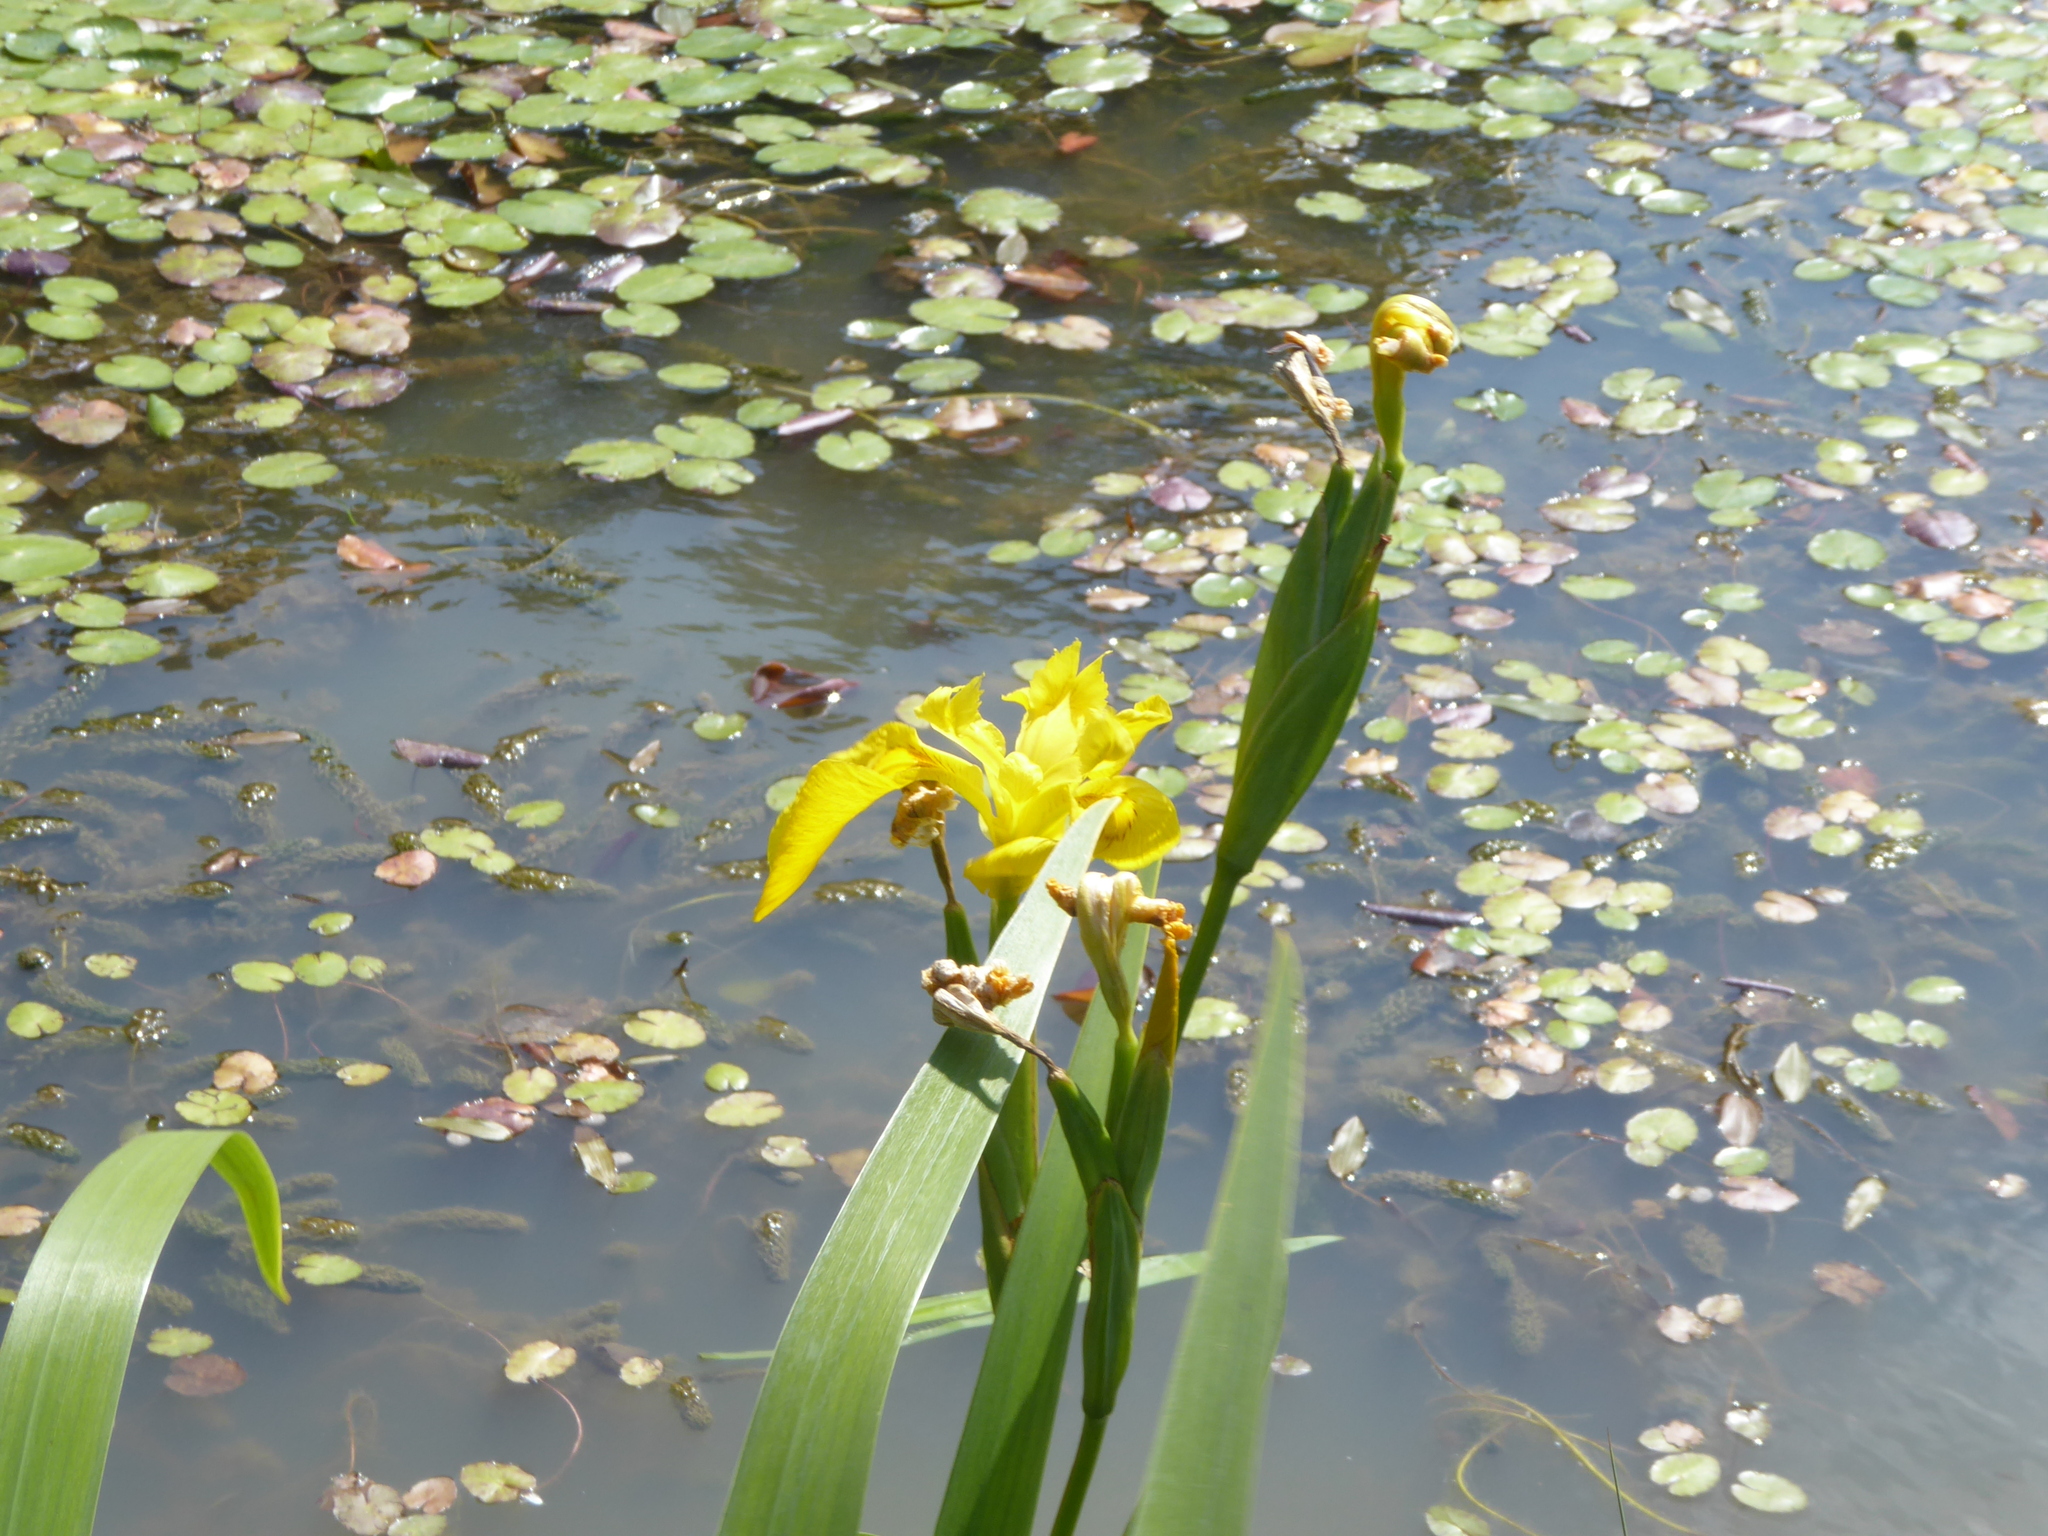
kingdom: Plantae
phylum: Tracheophyta
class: Liliopsida
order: Asparagales
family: Iridaceae
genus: Iris
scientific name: Iris pseudacorus
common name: Yellow flag
